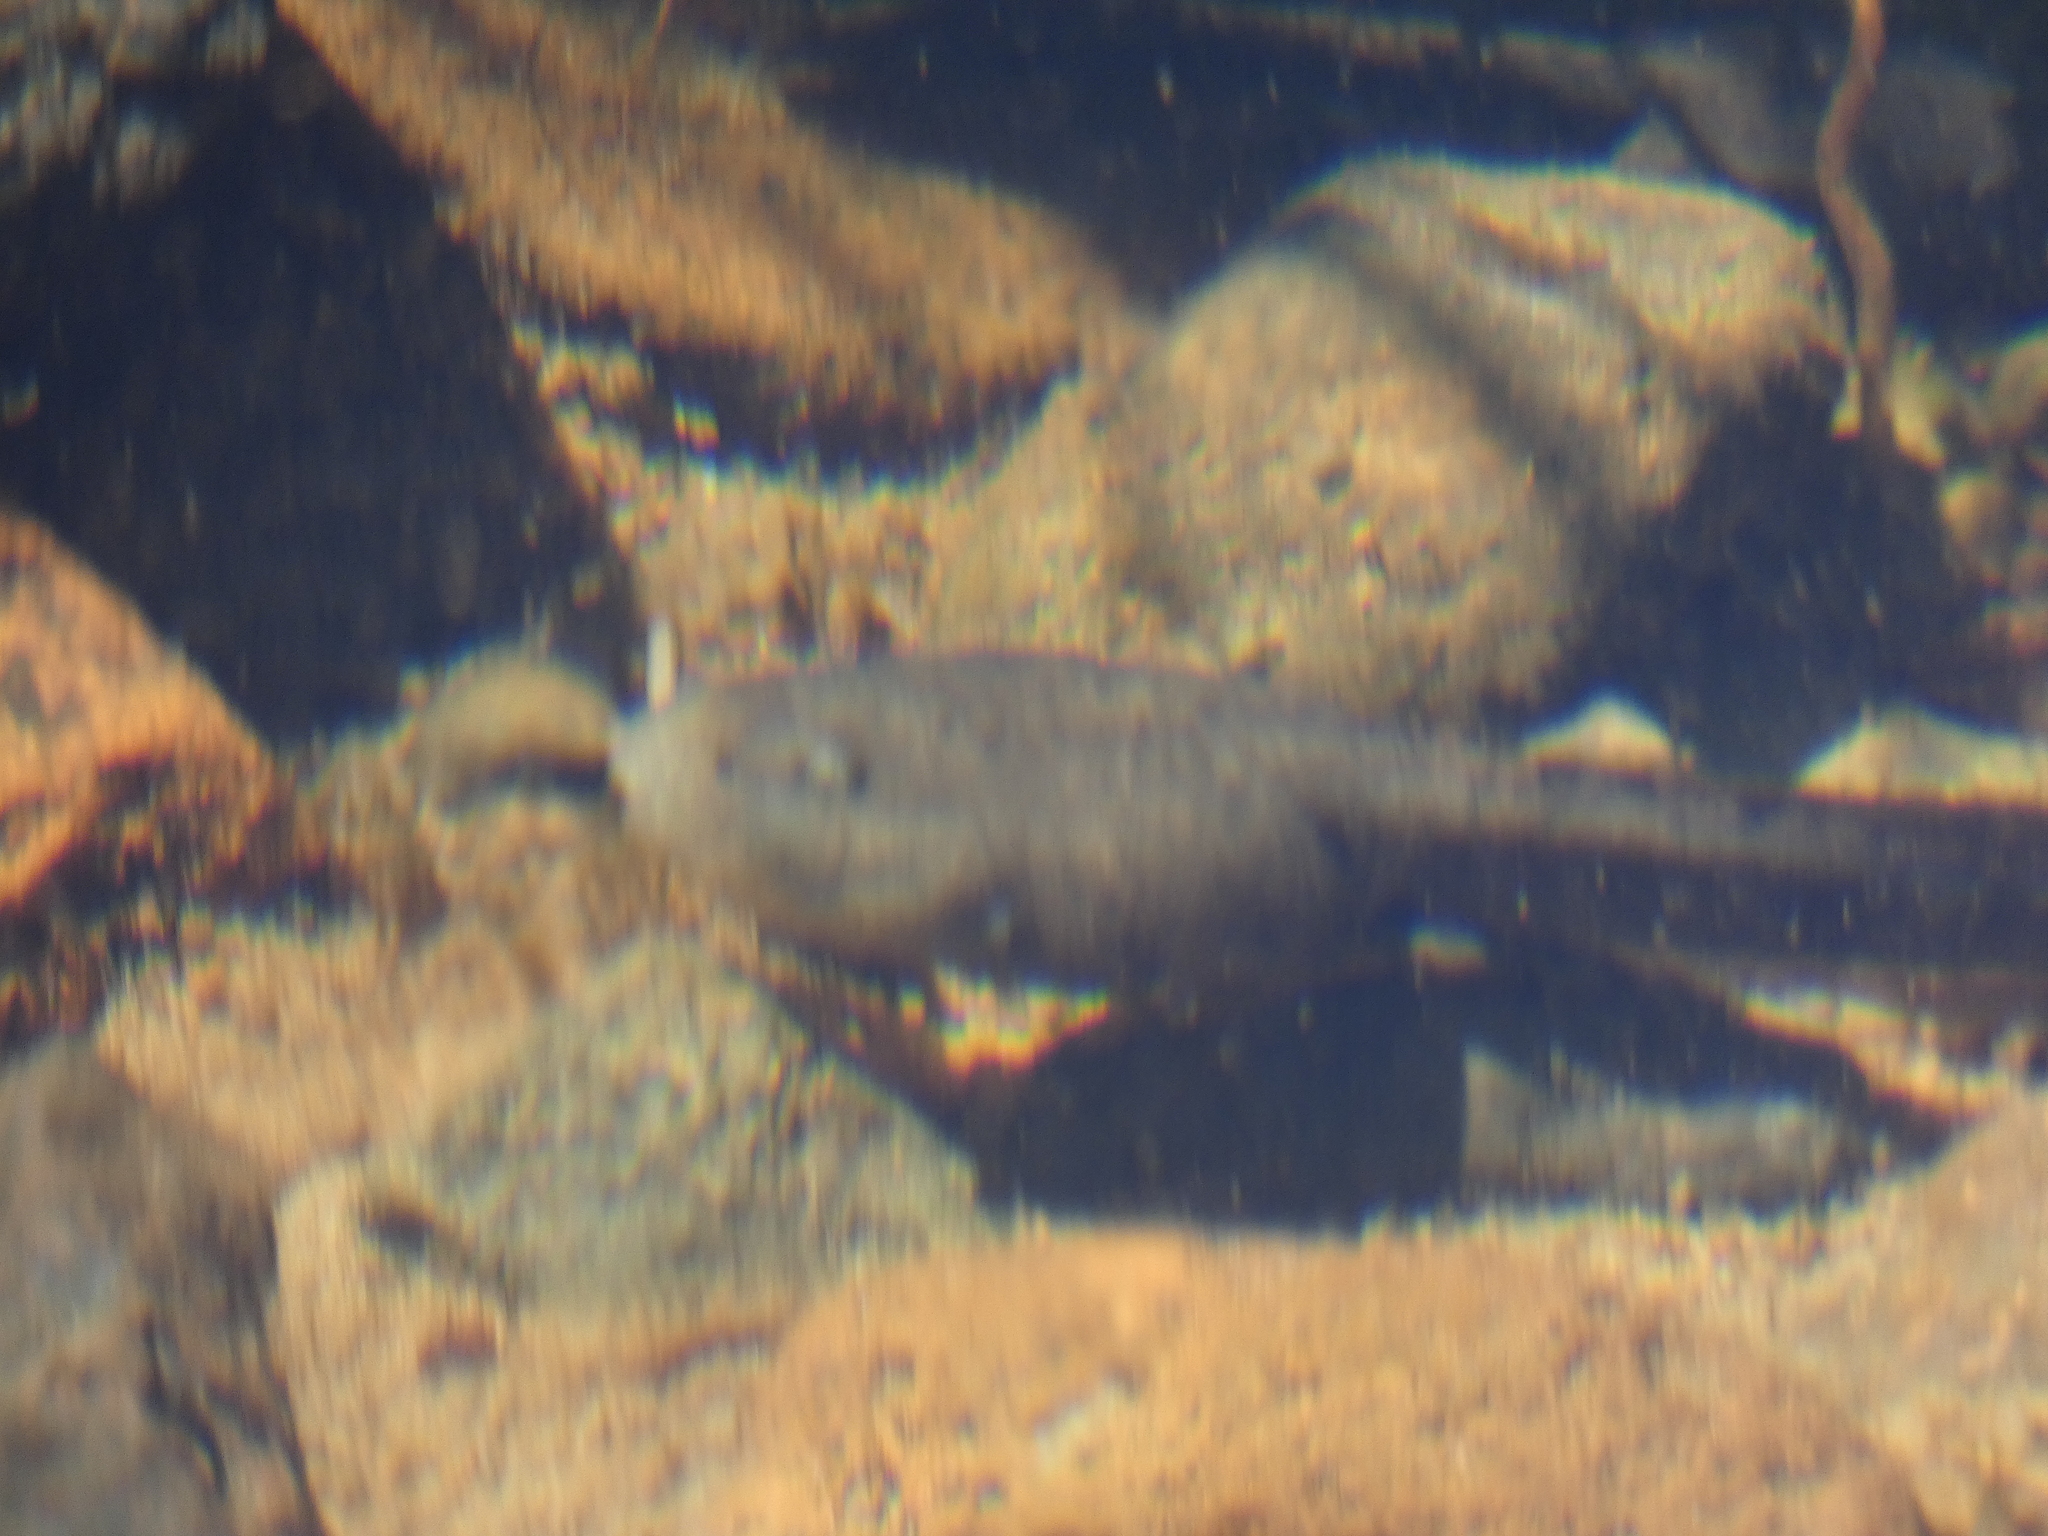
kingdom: Animalia
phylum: Chordata
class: Amphibia
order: Anura
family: Alsodidae
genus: Alsodes
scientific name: Alsodes pehuenche
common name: Pehuenche spiny-chest frog
